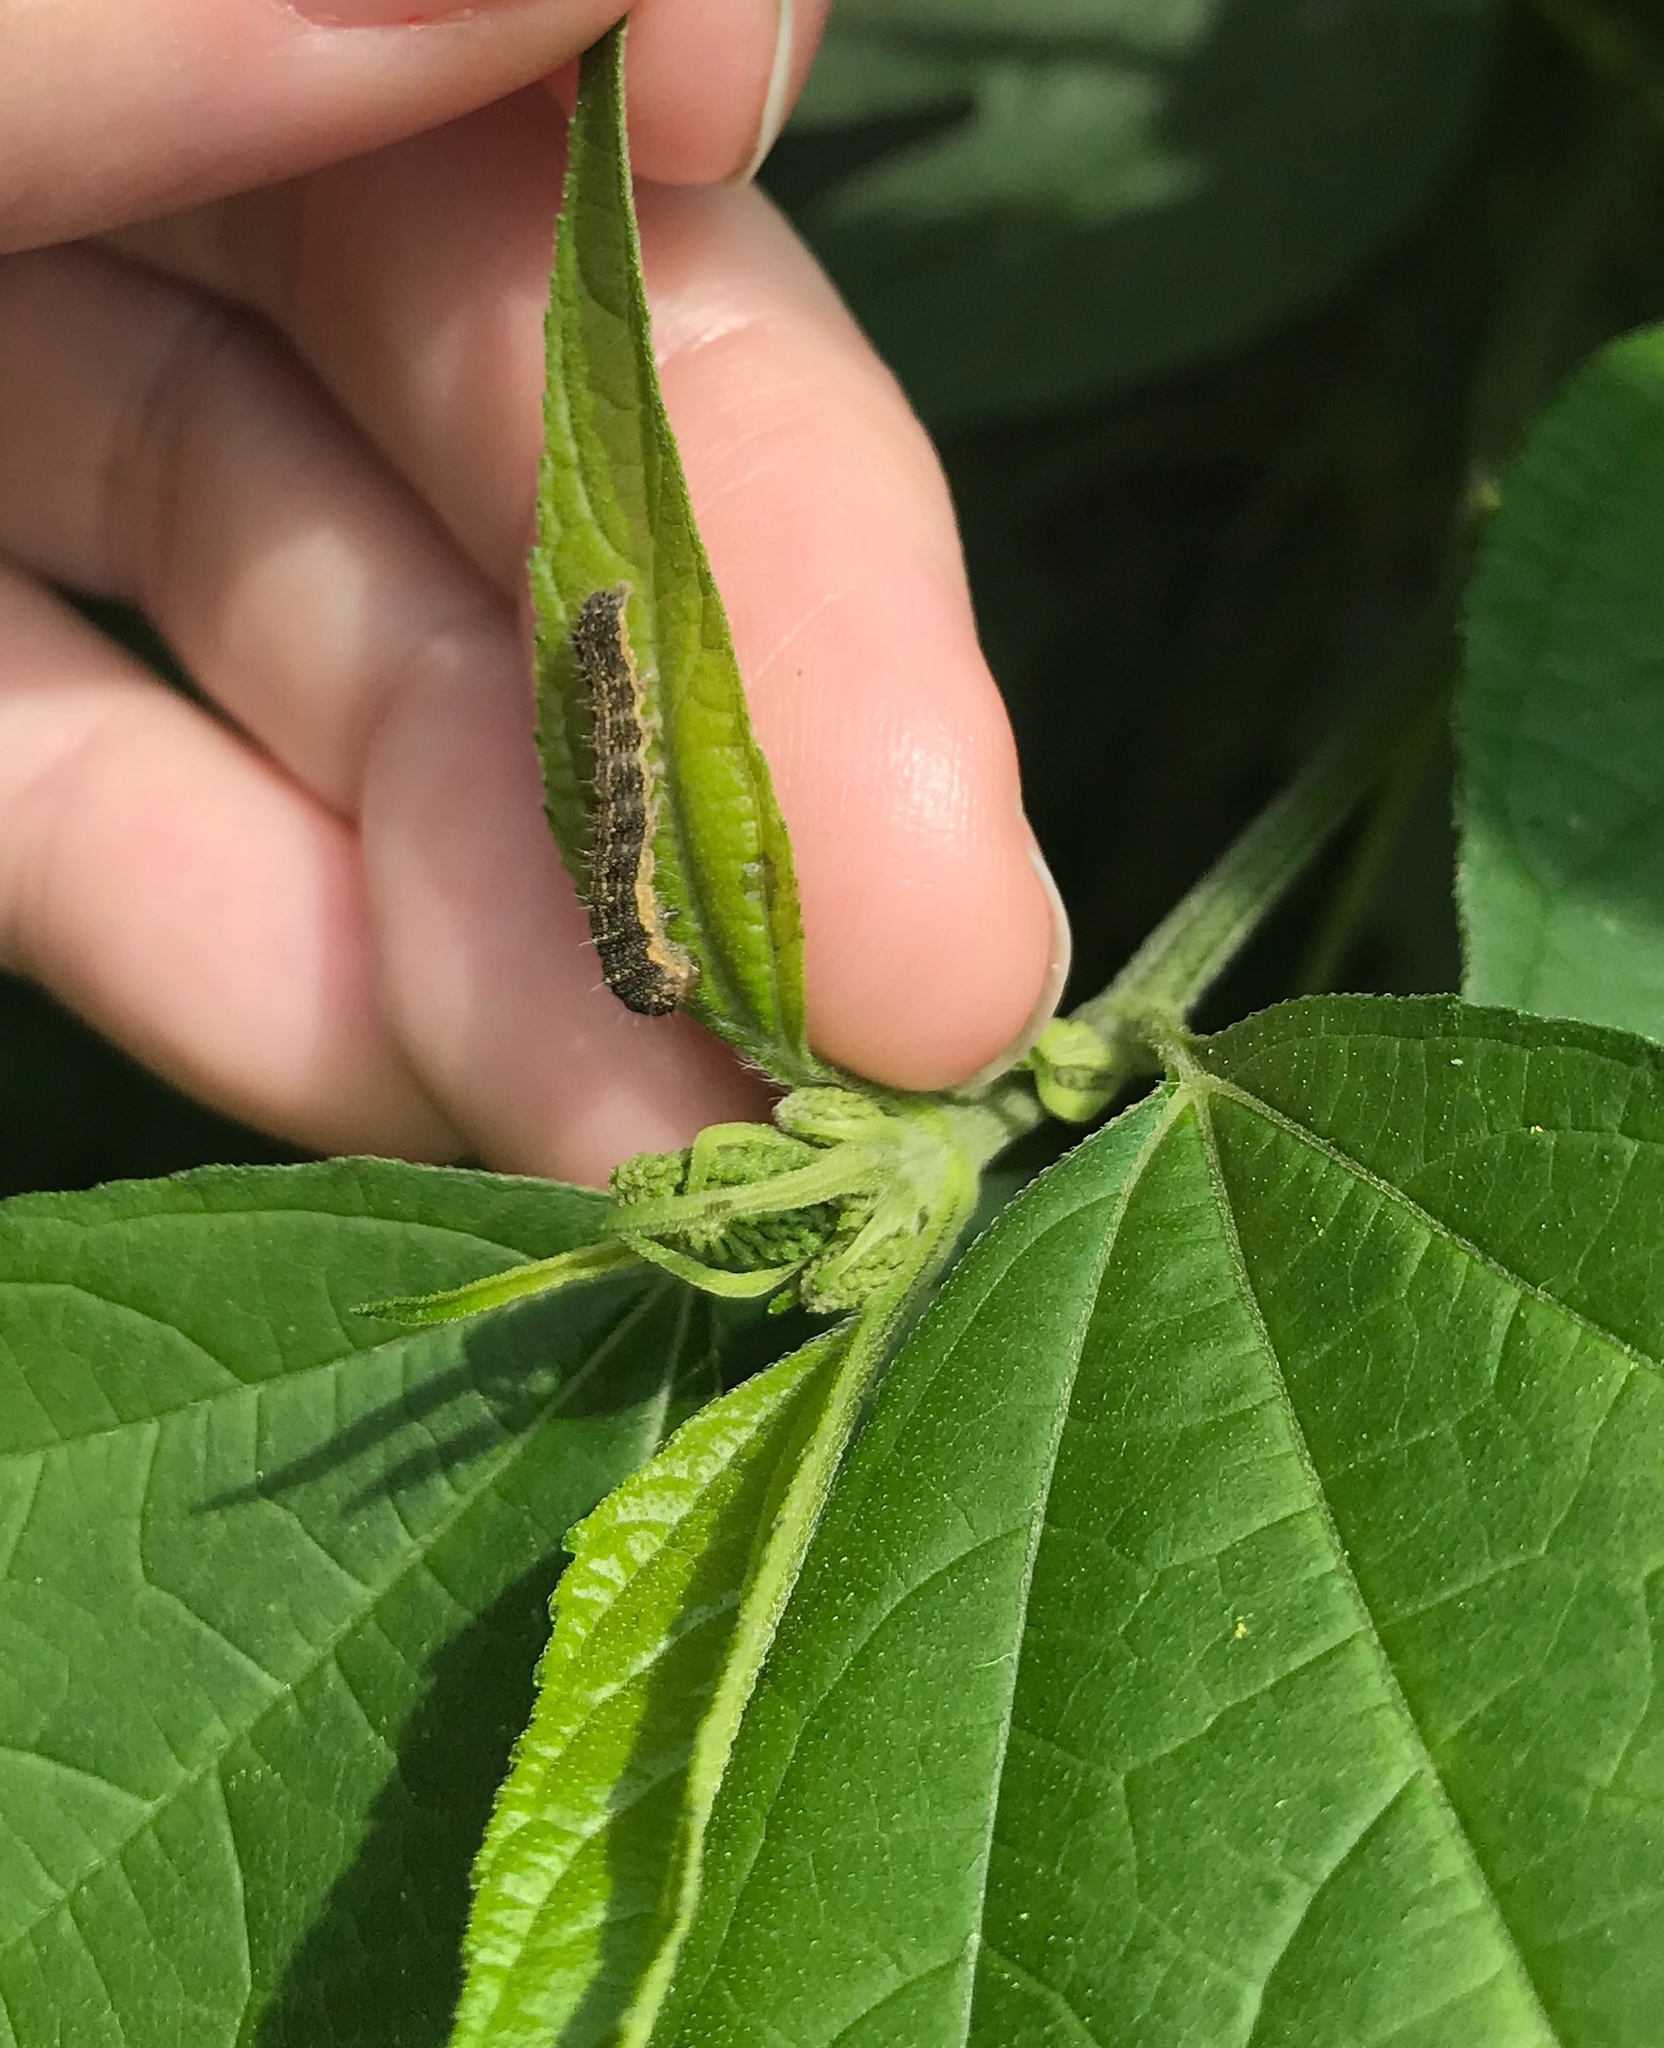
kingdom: Animalia
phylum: Arthropoda
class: Insecta
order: Lepidoptera
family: Noctuidae
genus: Schinia
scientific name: Schinia rivulosa
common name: Scarce meal-moth
